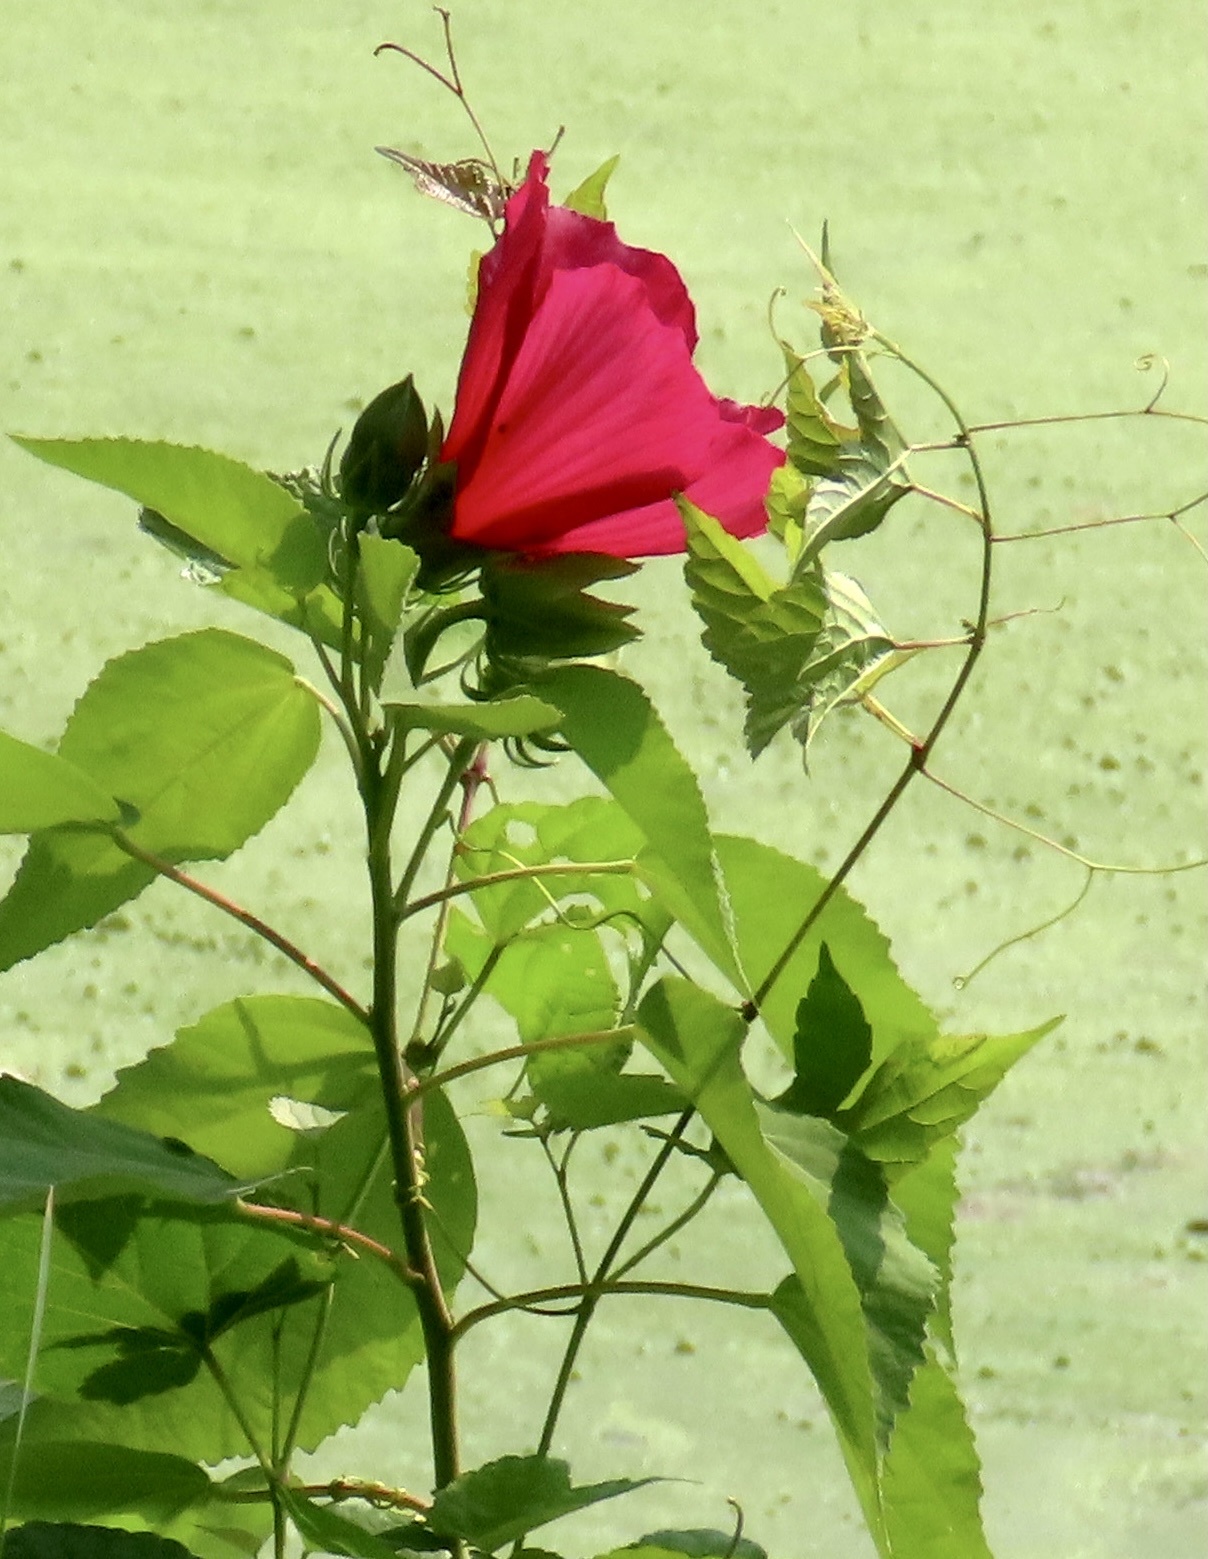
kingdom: Plantae
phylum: Tracheophyta
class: Magnoliopsida
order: Malvales
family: Malvaceae
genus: Hibiscus
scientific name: Hibiscus moscheutos
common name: Common rose-mallow
